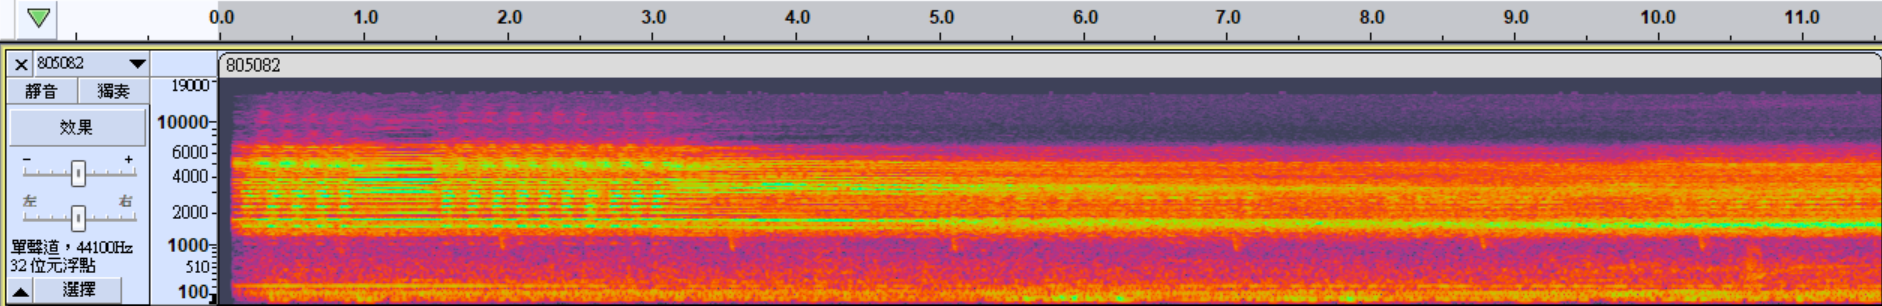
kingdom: Animalia
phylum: Arthropoda
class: Insecta
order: Hemiptera
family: Cicadidae
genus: Pomponia
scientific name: Pomponia yayeyamana
